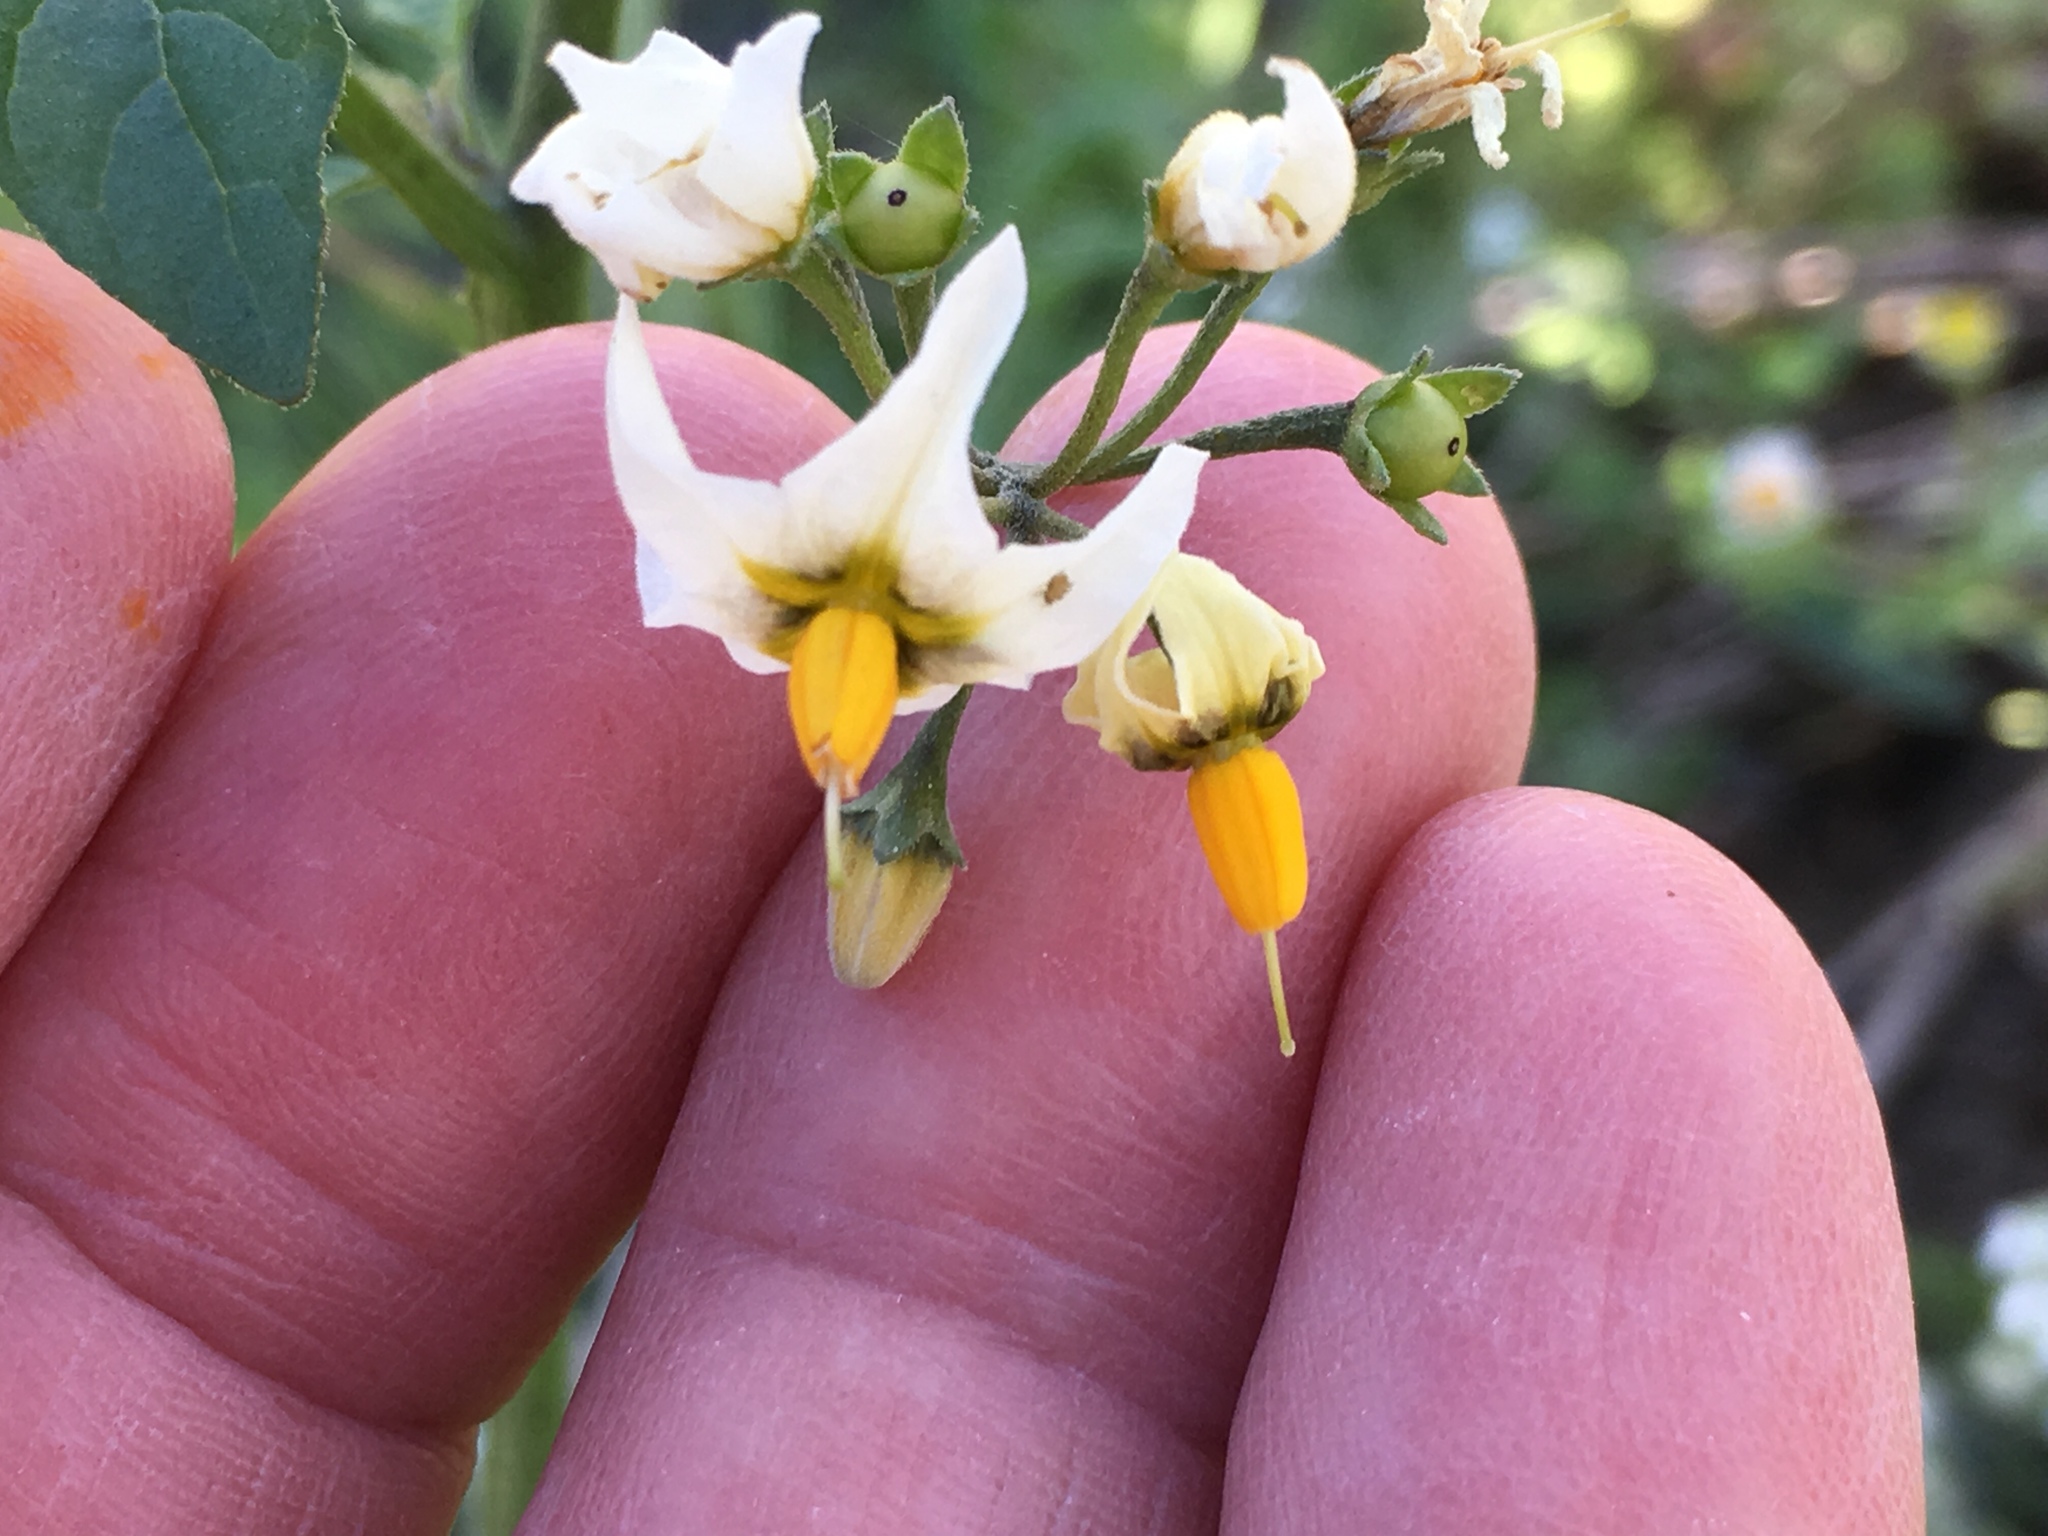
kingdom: Plantae
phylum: Tracheophyta
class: Magnoliopsida
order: Solanales
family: Solanaceae
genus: Solanum
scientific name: Solanum douglasii
